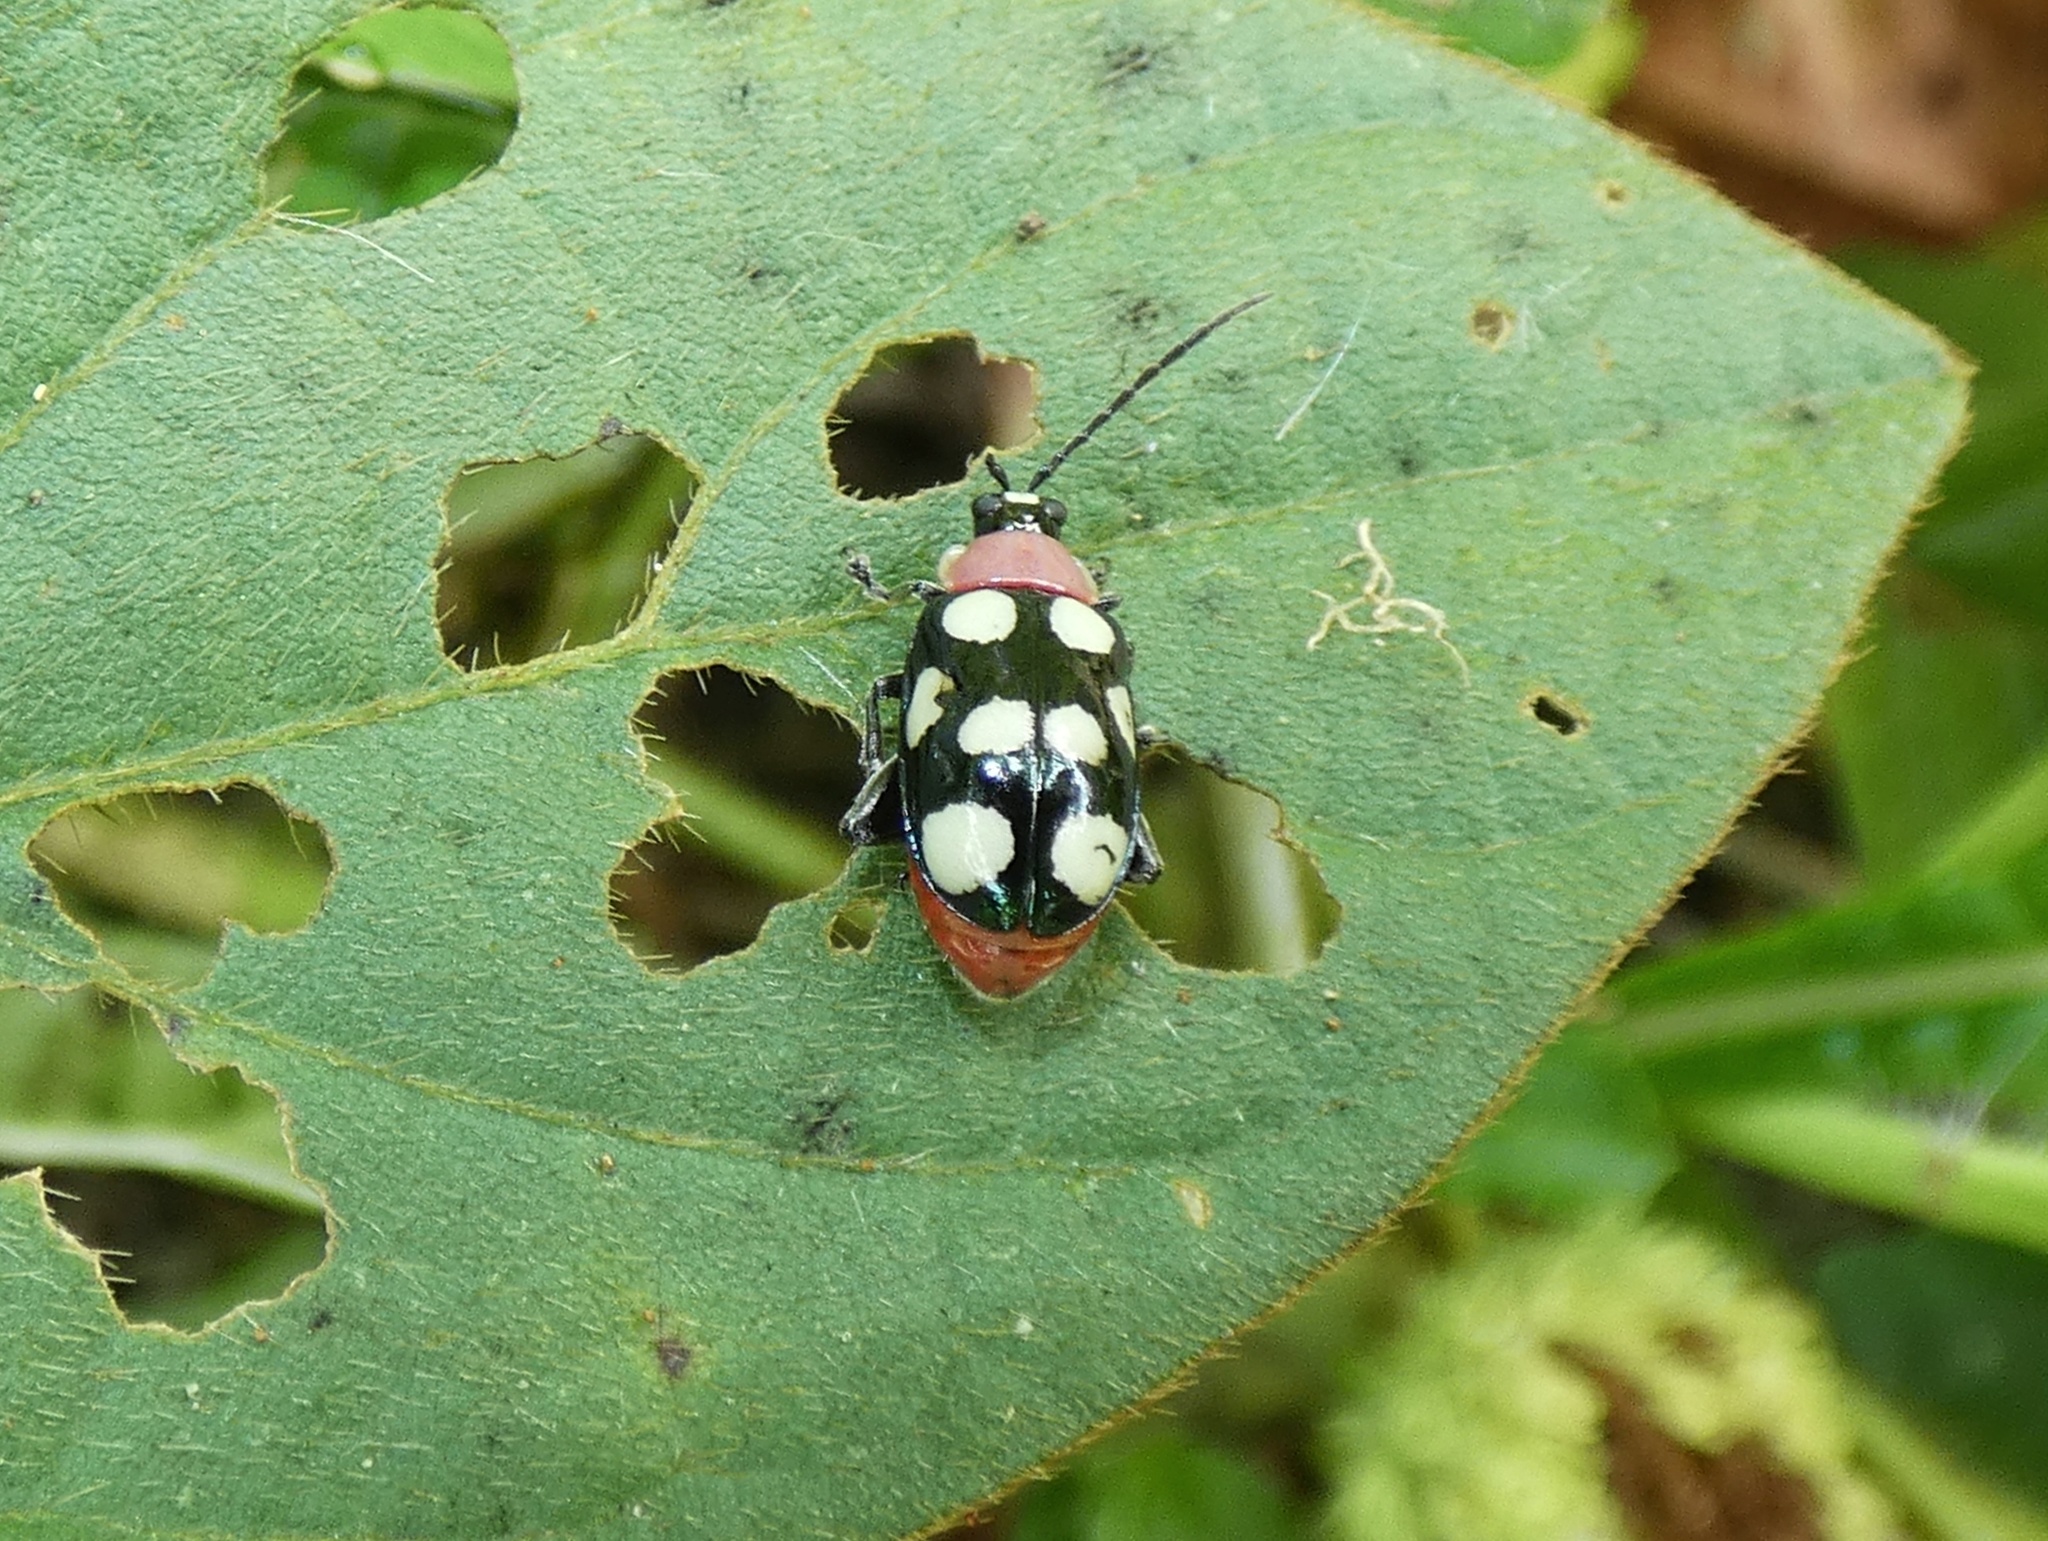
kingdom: Animalia
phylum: Arthropoda
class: Insecta
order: Coleoptera
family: Chrysomelidae
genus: Omophoita
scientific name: Omophoita aequinoctialis
